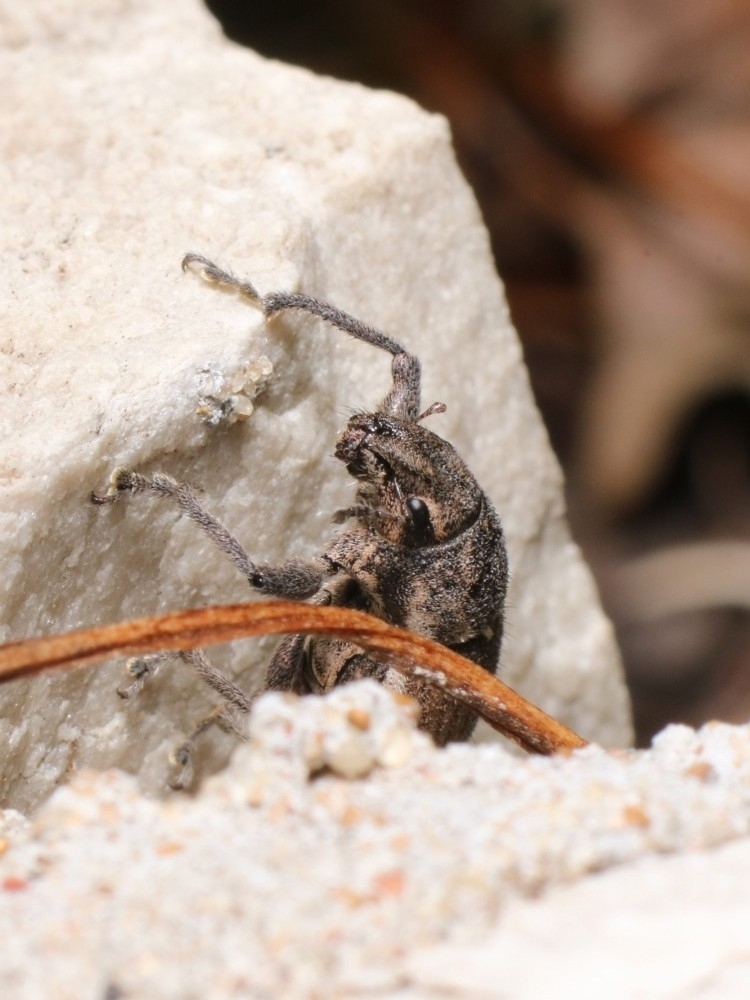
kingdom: Animalia
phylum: Arthropoda
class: Insecta
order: Coleoptera
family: Curculionidae
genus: Naupactus
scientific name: Naupactus leucoloma
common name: Whitefringed beetle
